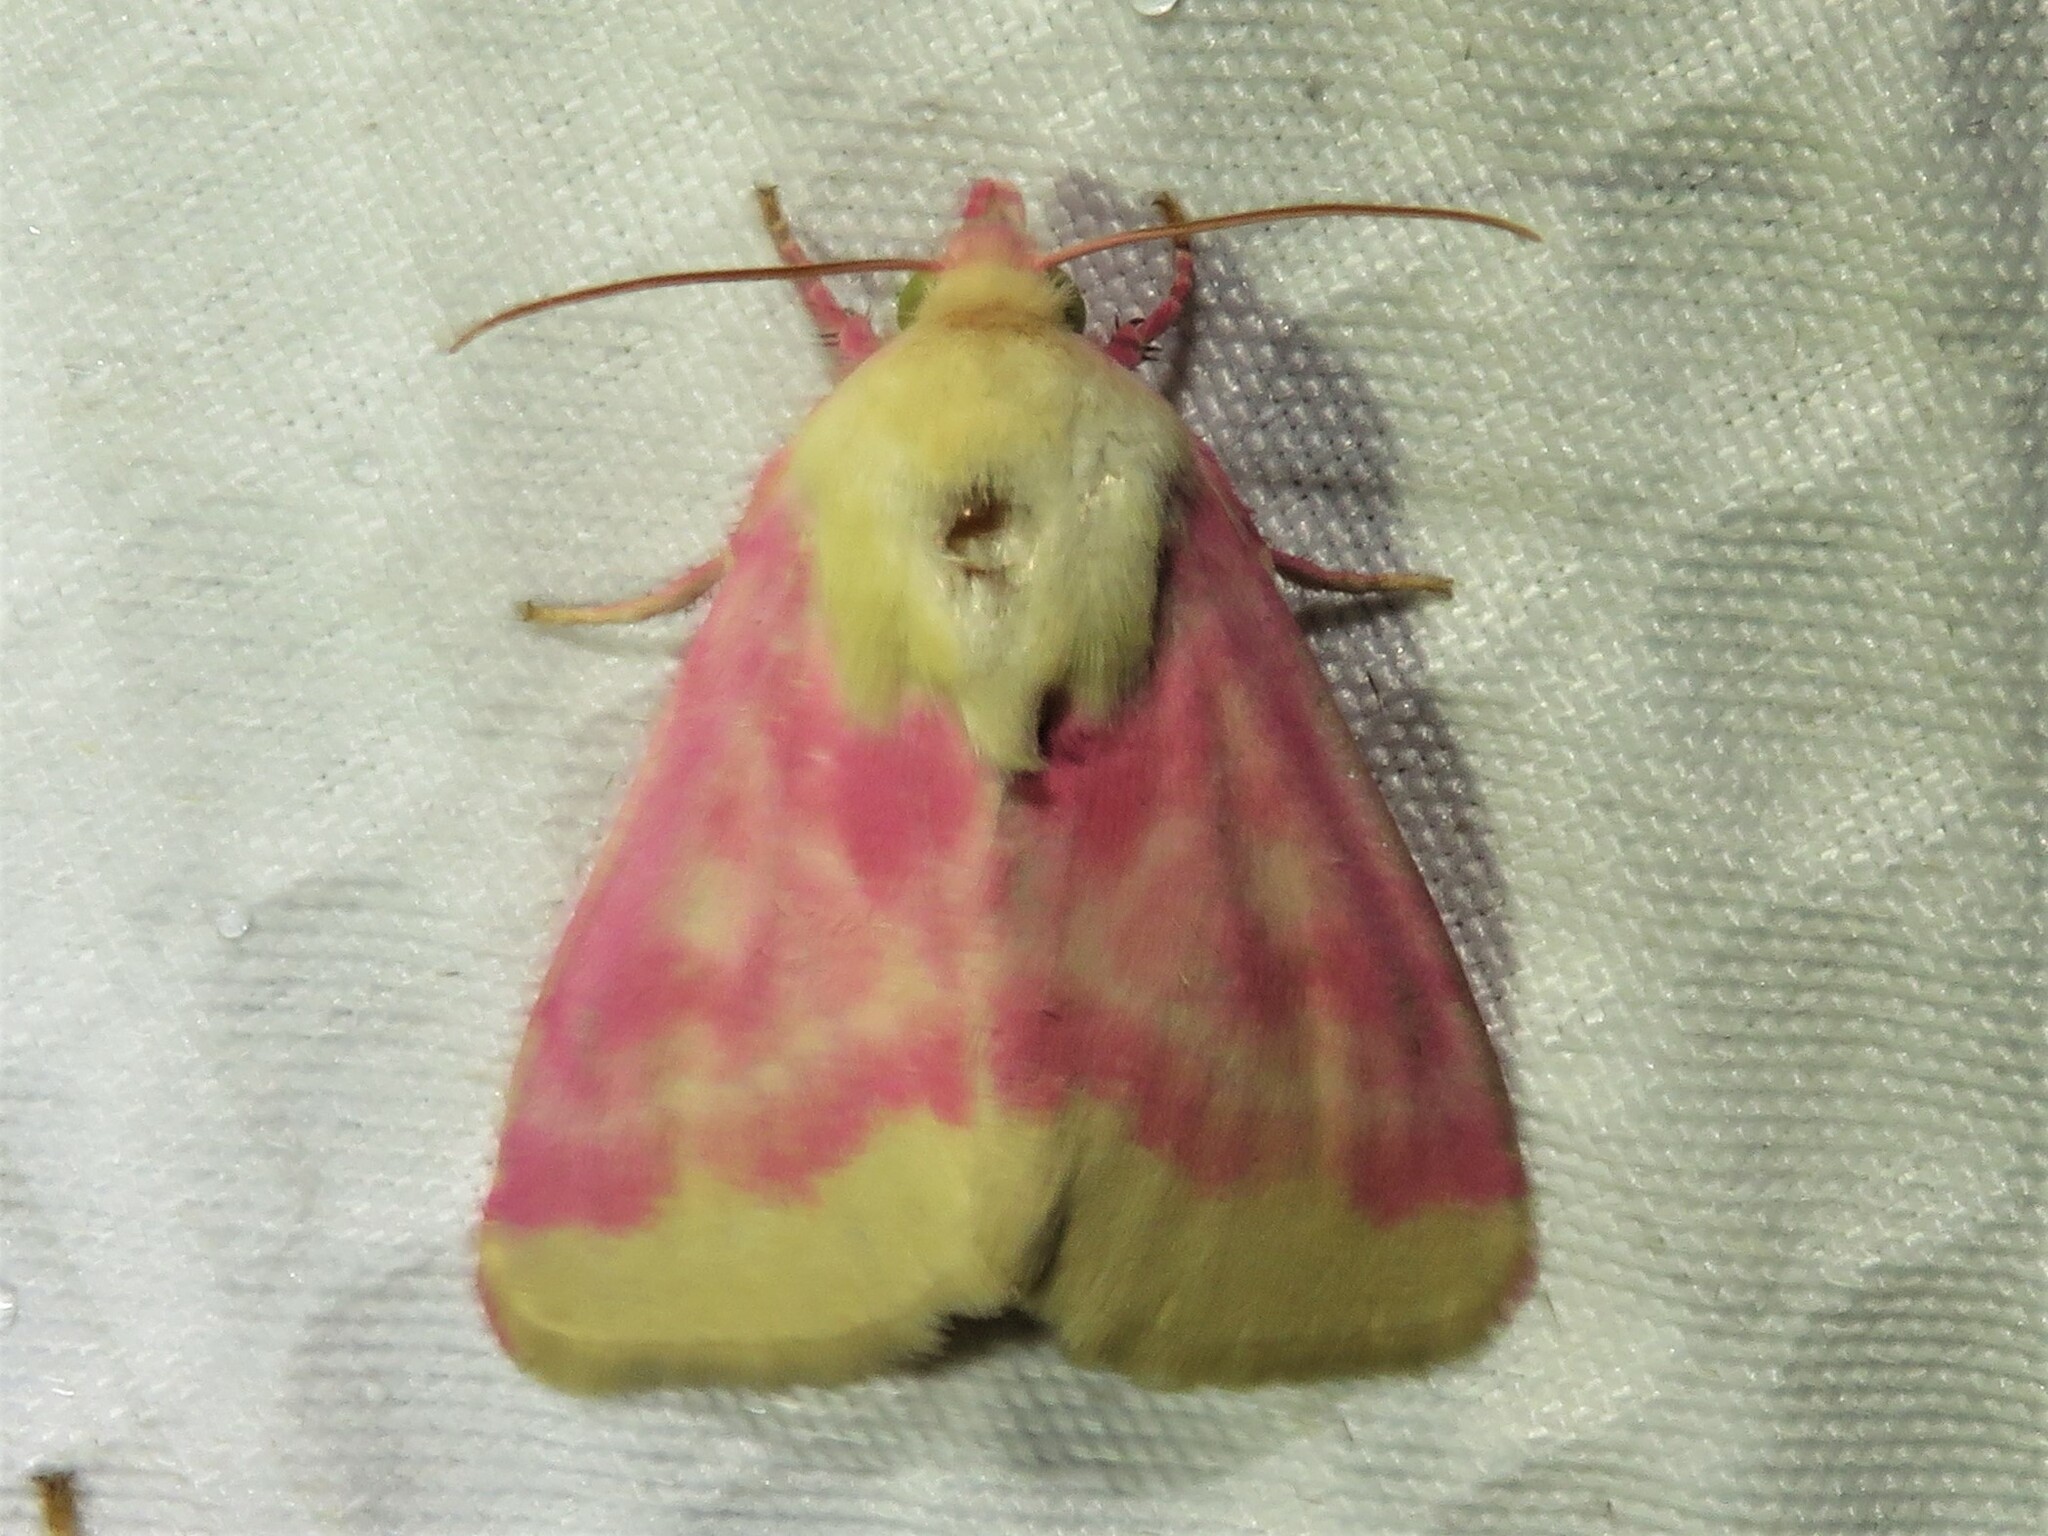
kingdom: Animalia
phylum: Arthropoda
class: Insecta
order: Lepidoptera
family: Noctuidae
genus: Schinia
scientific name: Schinia florida
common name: Primrose moth
